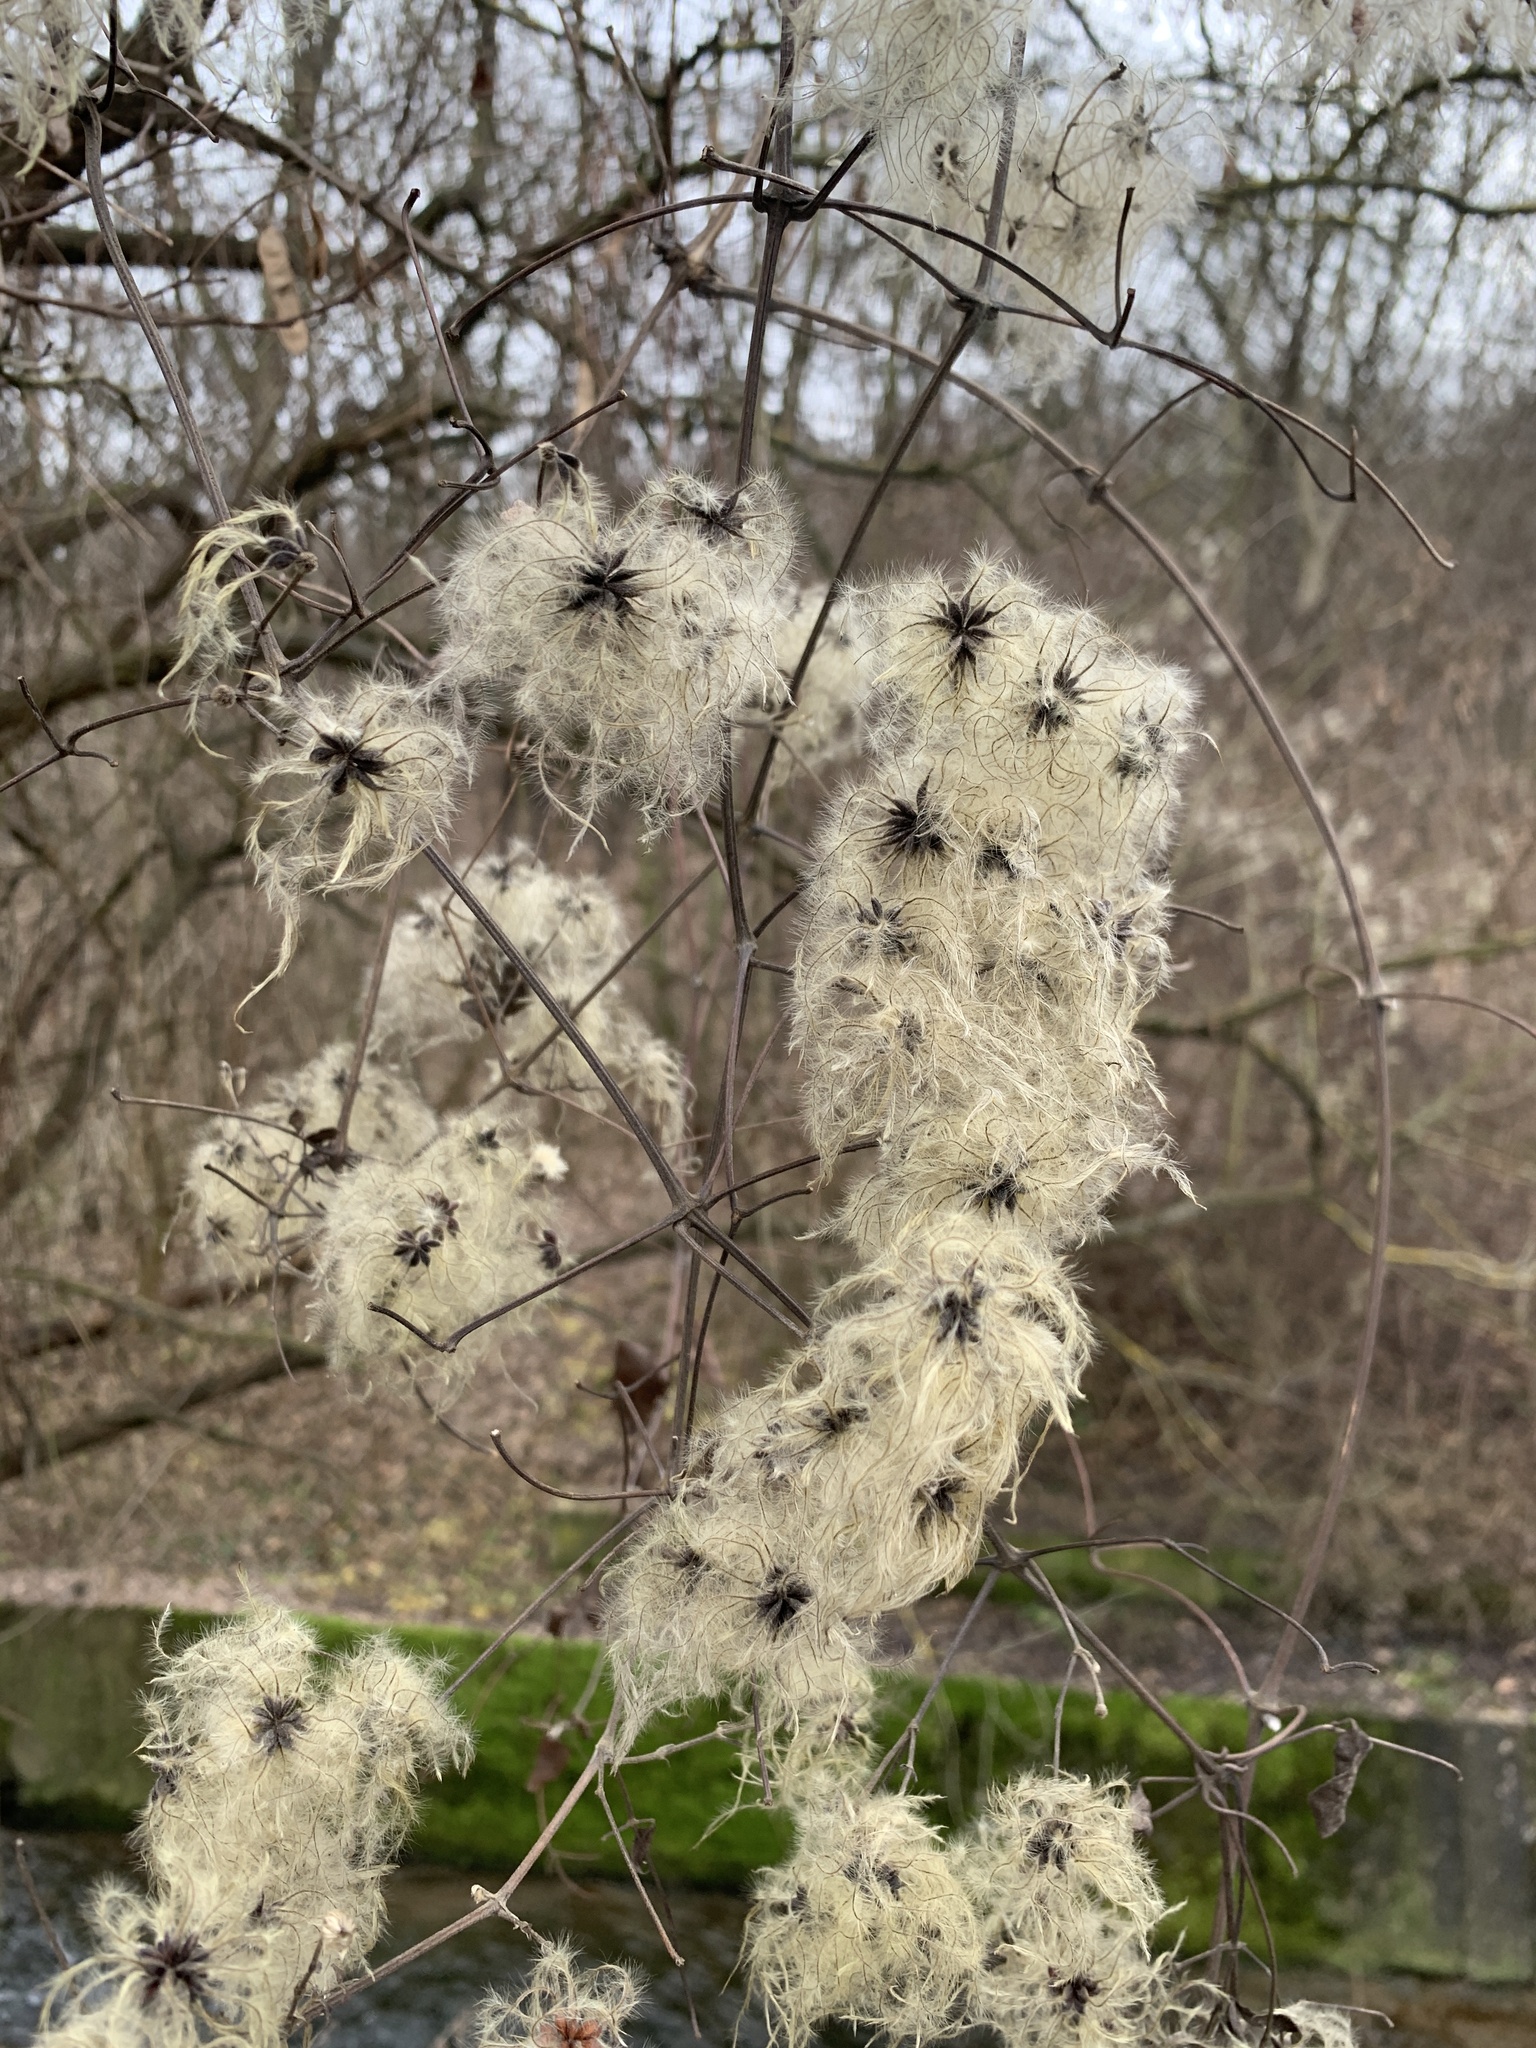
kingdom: Plantae
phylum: Tracheophyta
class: Magnoliopsida
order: Ranunculales
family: Ranunculaceae
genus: Clematis
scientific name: Clematis vitalba
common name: Evergreen clematis
